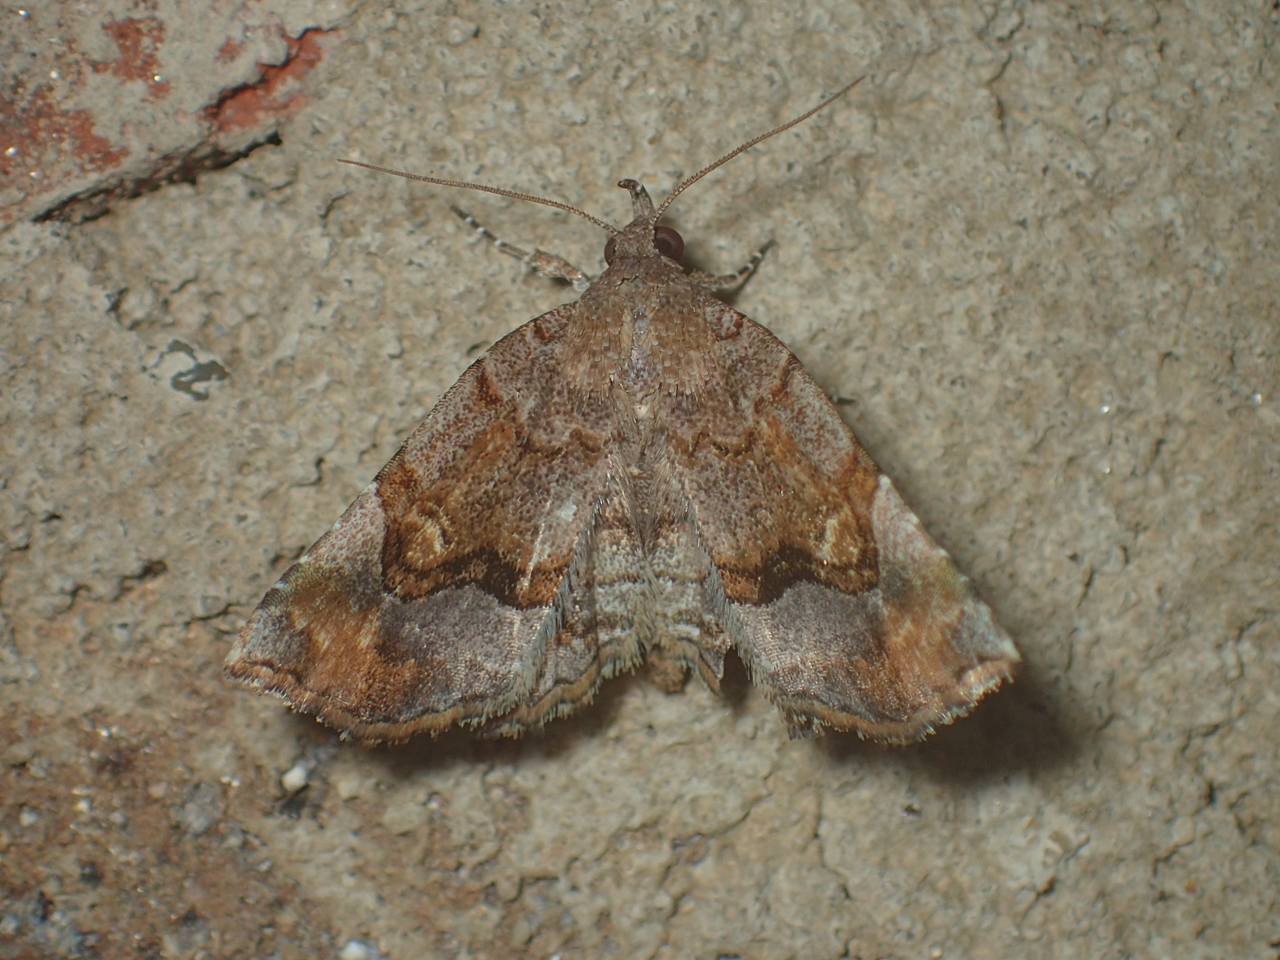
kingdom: Animalia
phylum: Arthropoda
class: Insecta
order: Lepidoptera
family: Erebidae
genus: Pangrapta
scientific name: Pangrapta decoralis
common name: Decorated owlet
